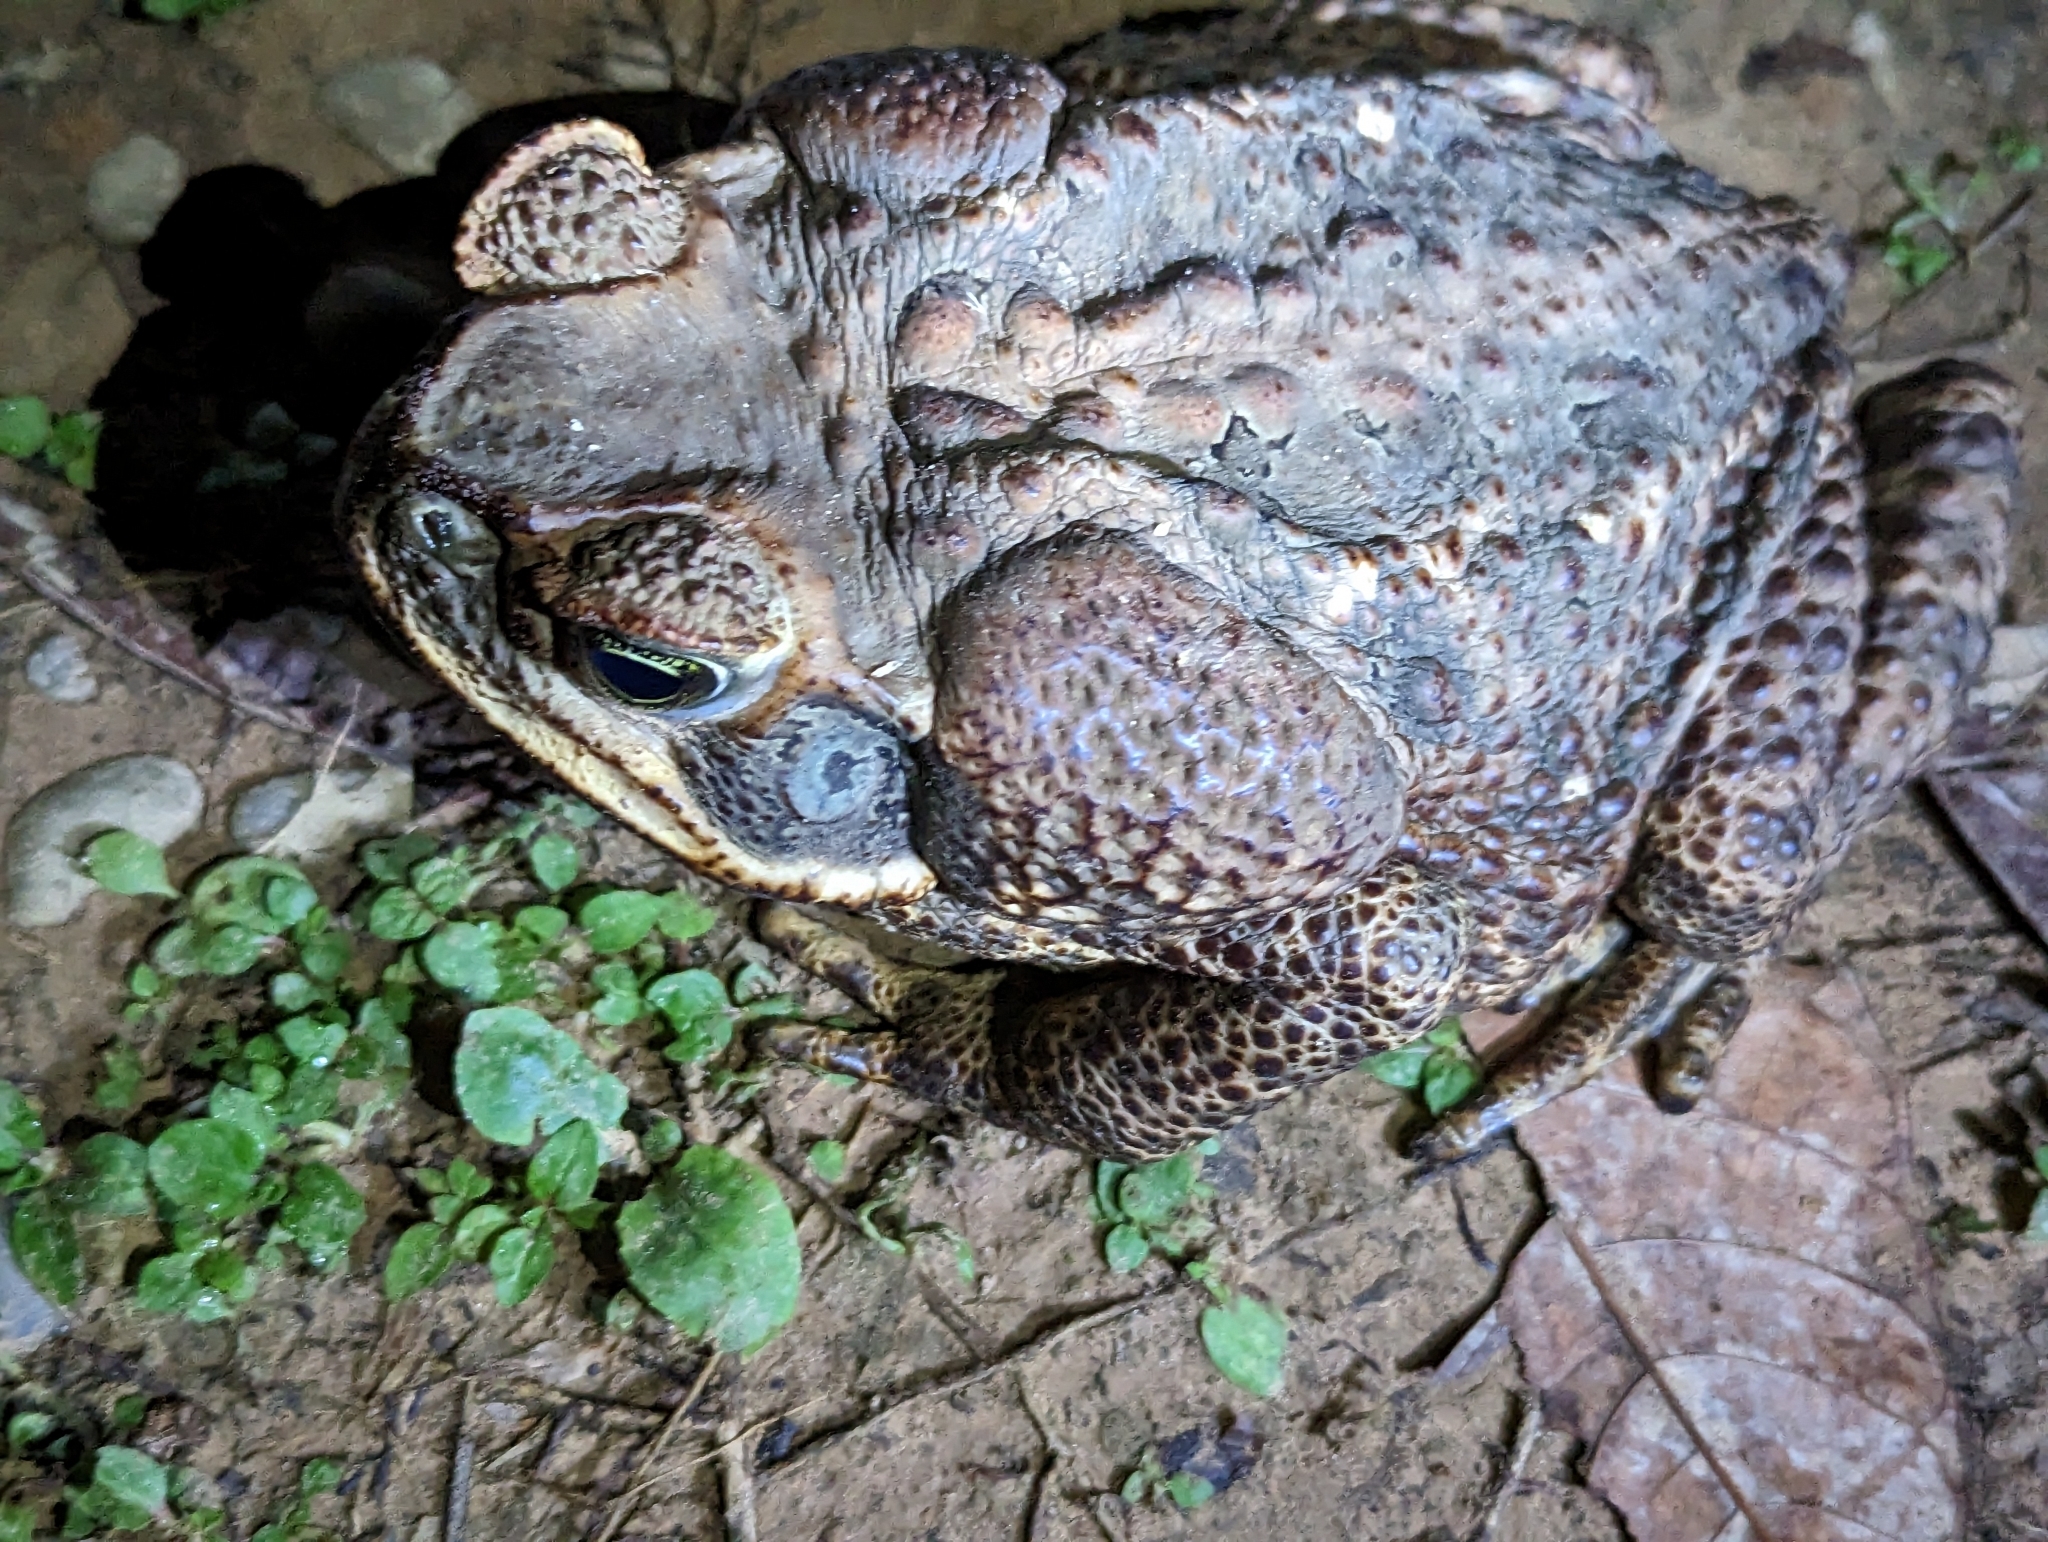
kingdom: Animalia
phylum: Chordata
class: Amphibia
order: Anura
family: Bufonidae
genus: Rhinella
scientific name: Rhinella marina
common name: Cane toad
